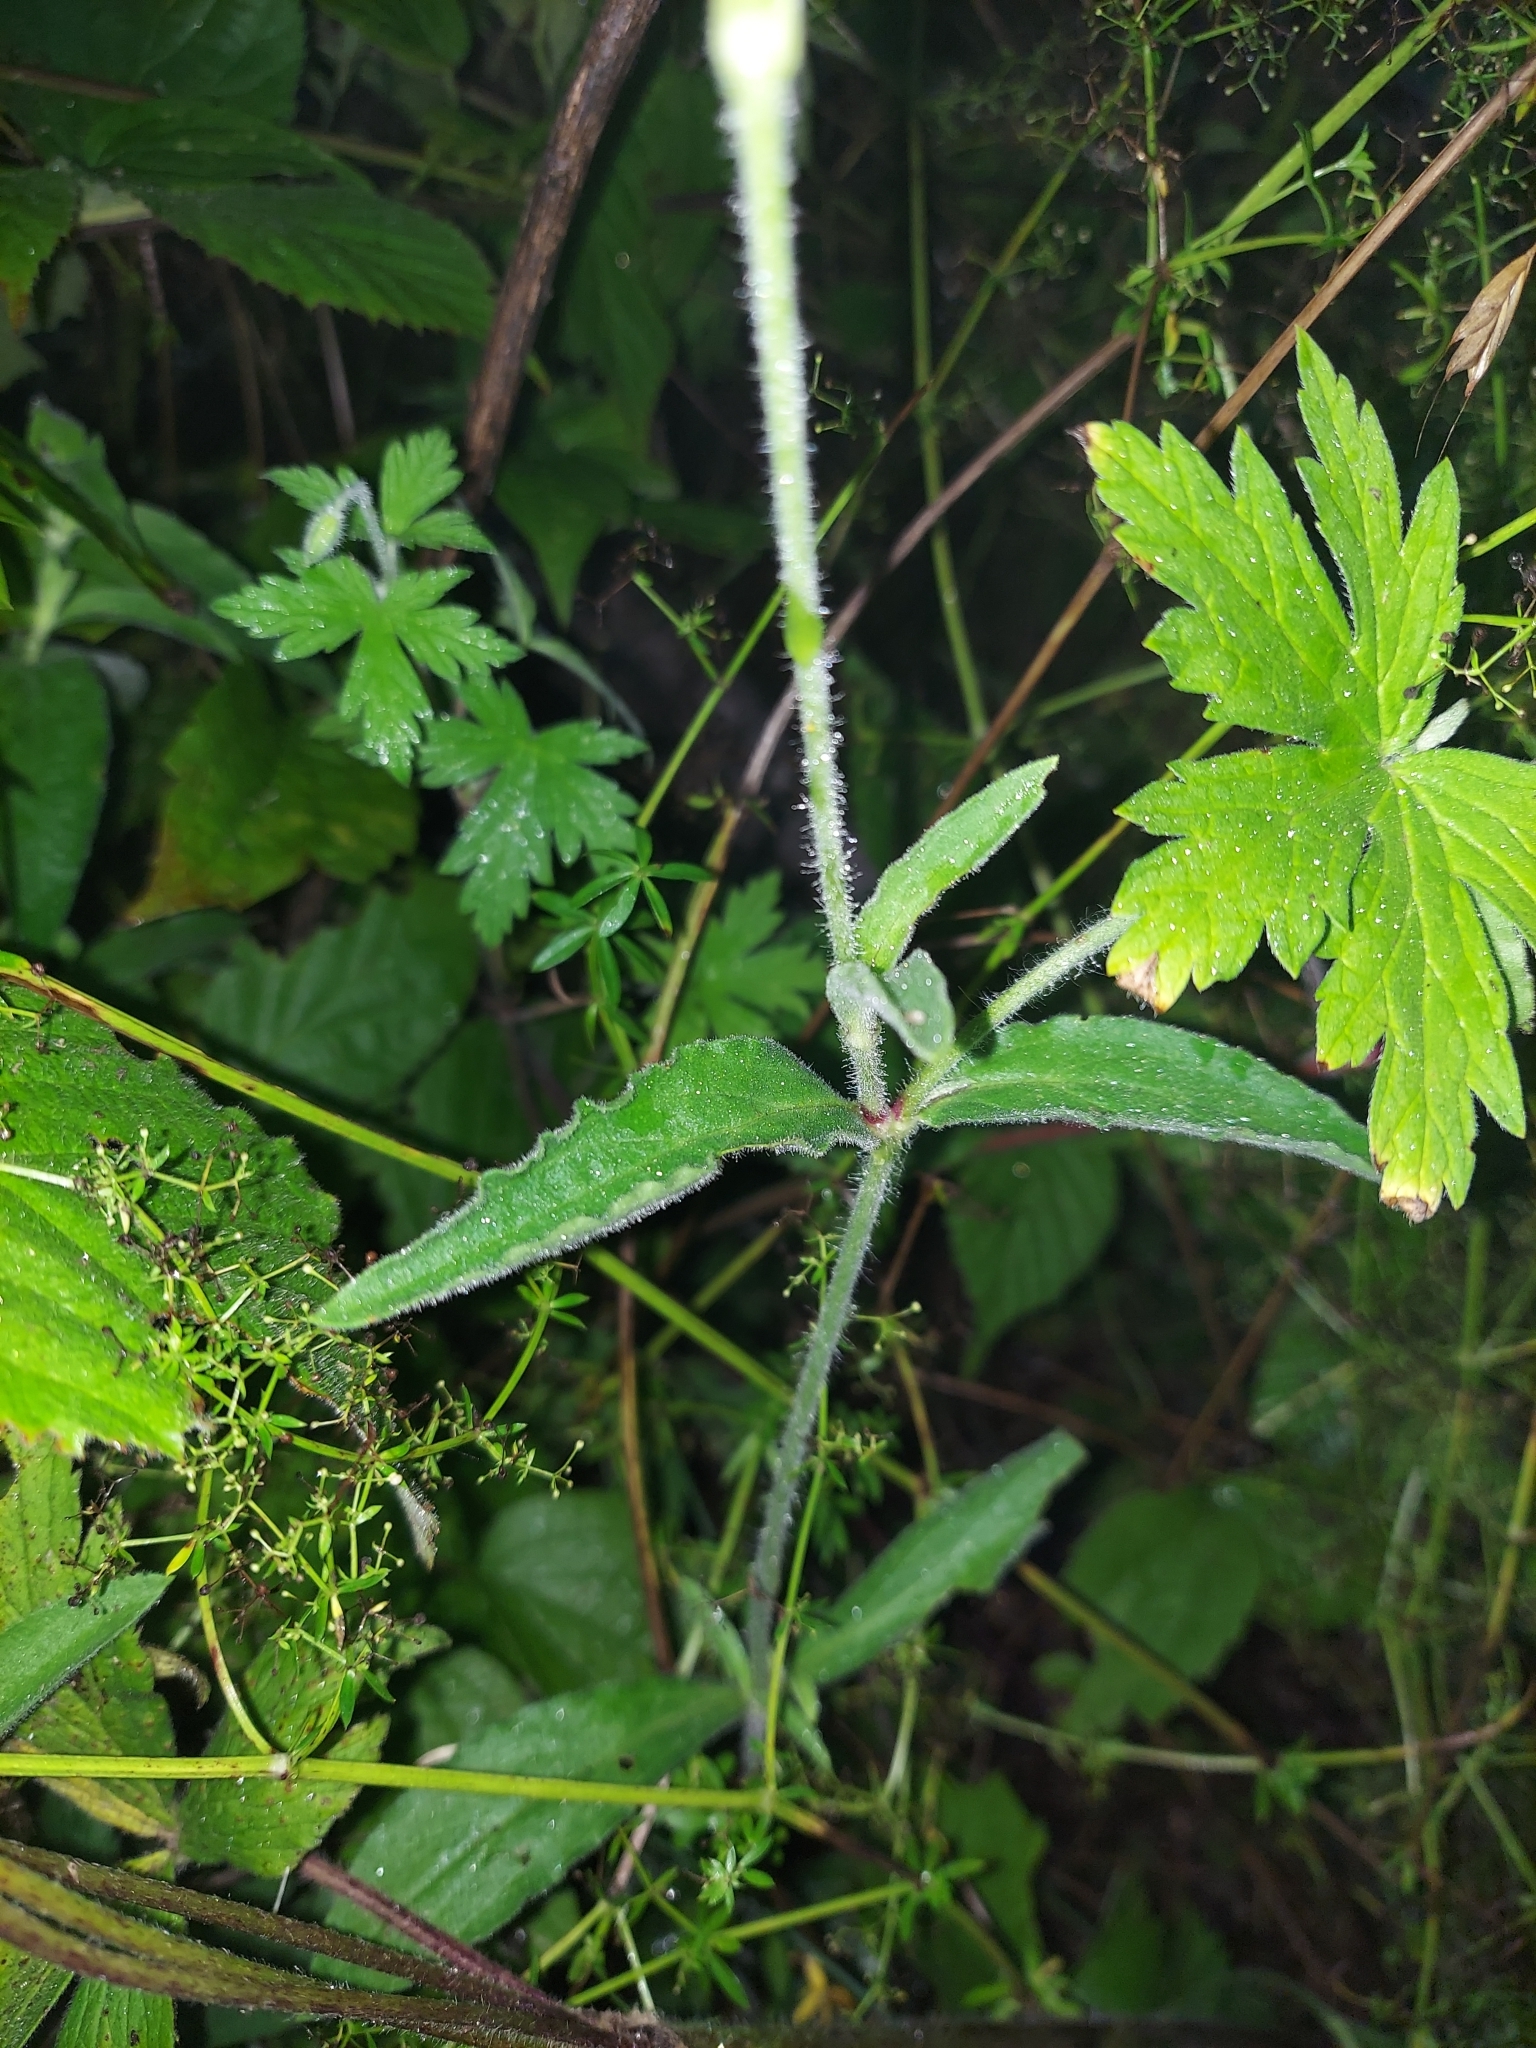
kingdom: Plantae
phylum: Tracheophyta
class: Magnoliopsida
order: Caryophyllales
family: Caryophyllaceae
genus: Silene
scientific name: Silene latifolia
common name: White campion
